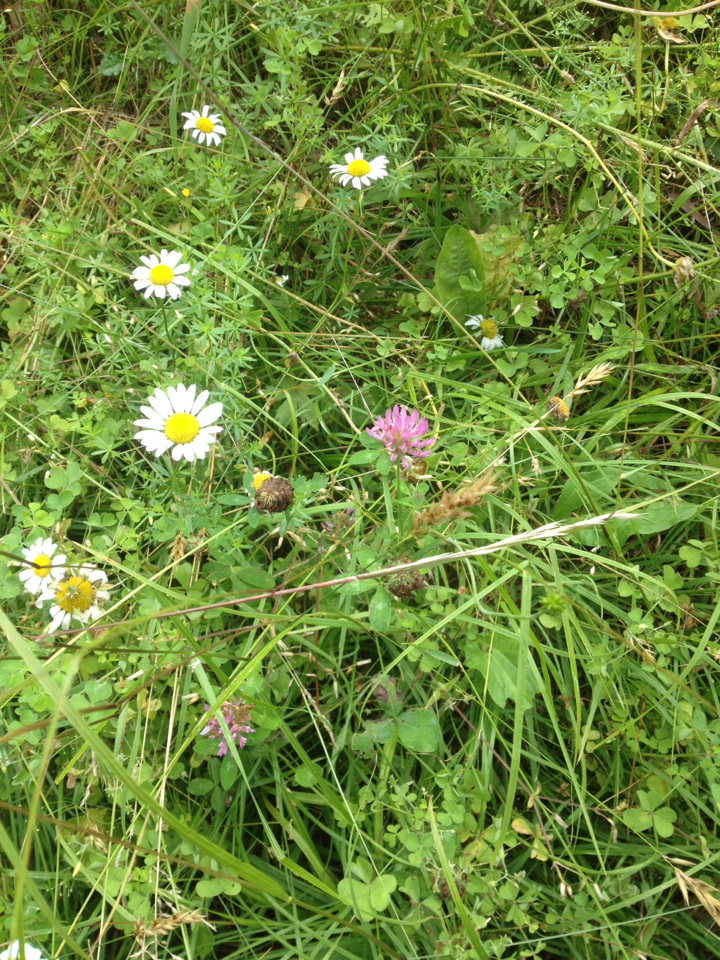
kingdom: Plantae
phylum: Tracheophyta
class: Magnoliopsida
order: Fabales
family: Fabaceae
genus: Trifolium
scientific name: Trifolium pratense
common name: Red clover
